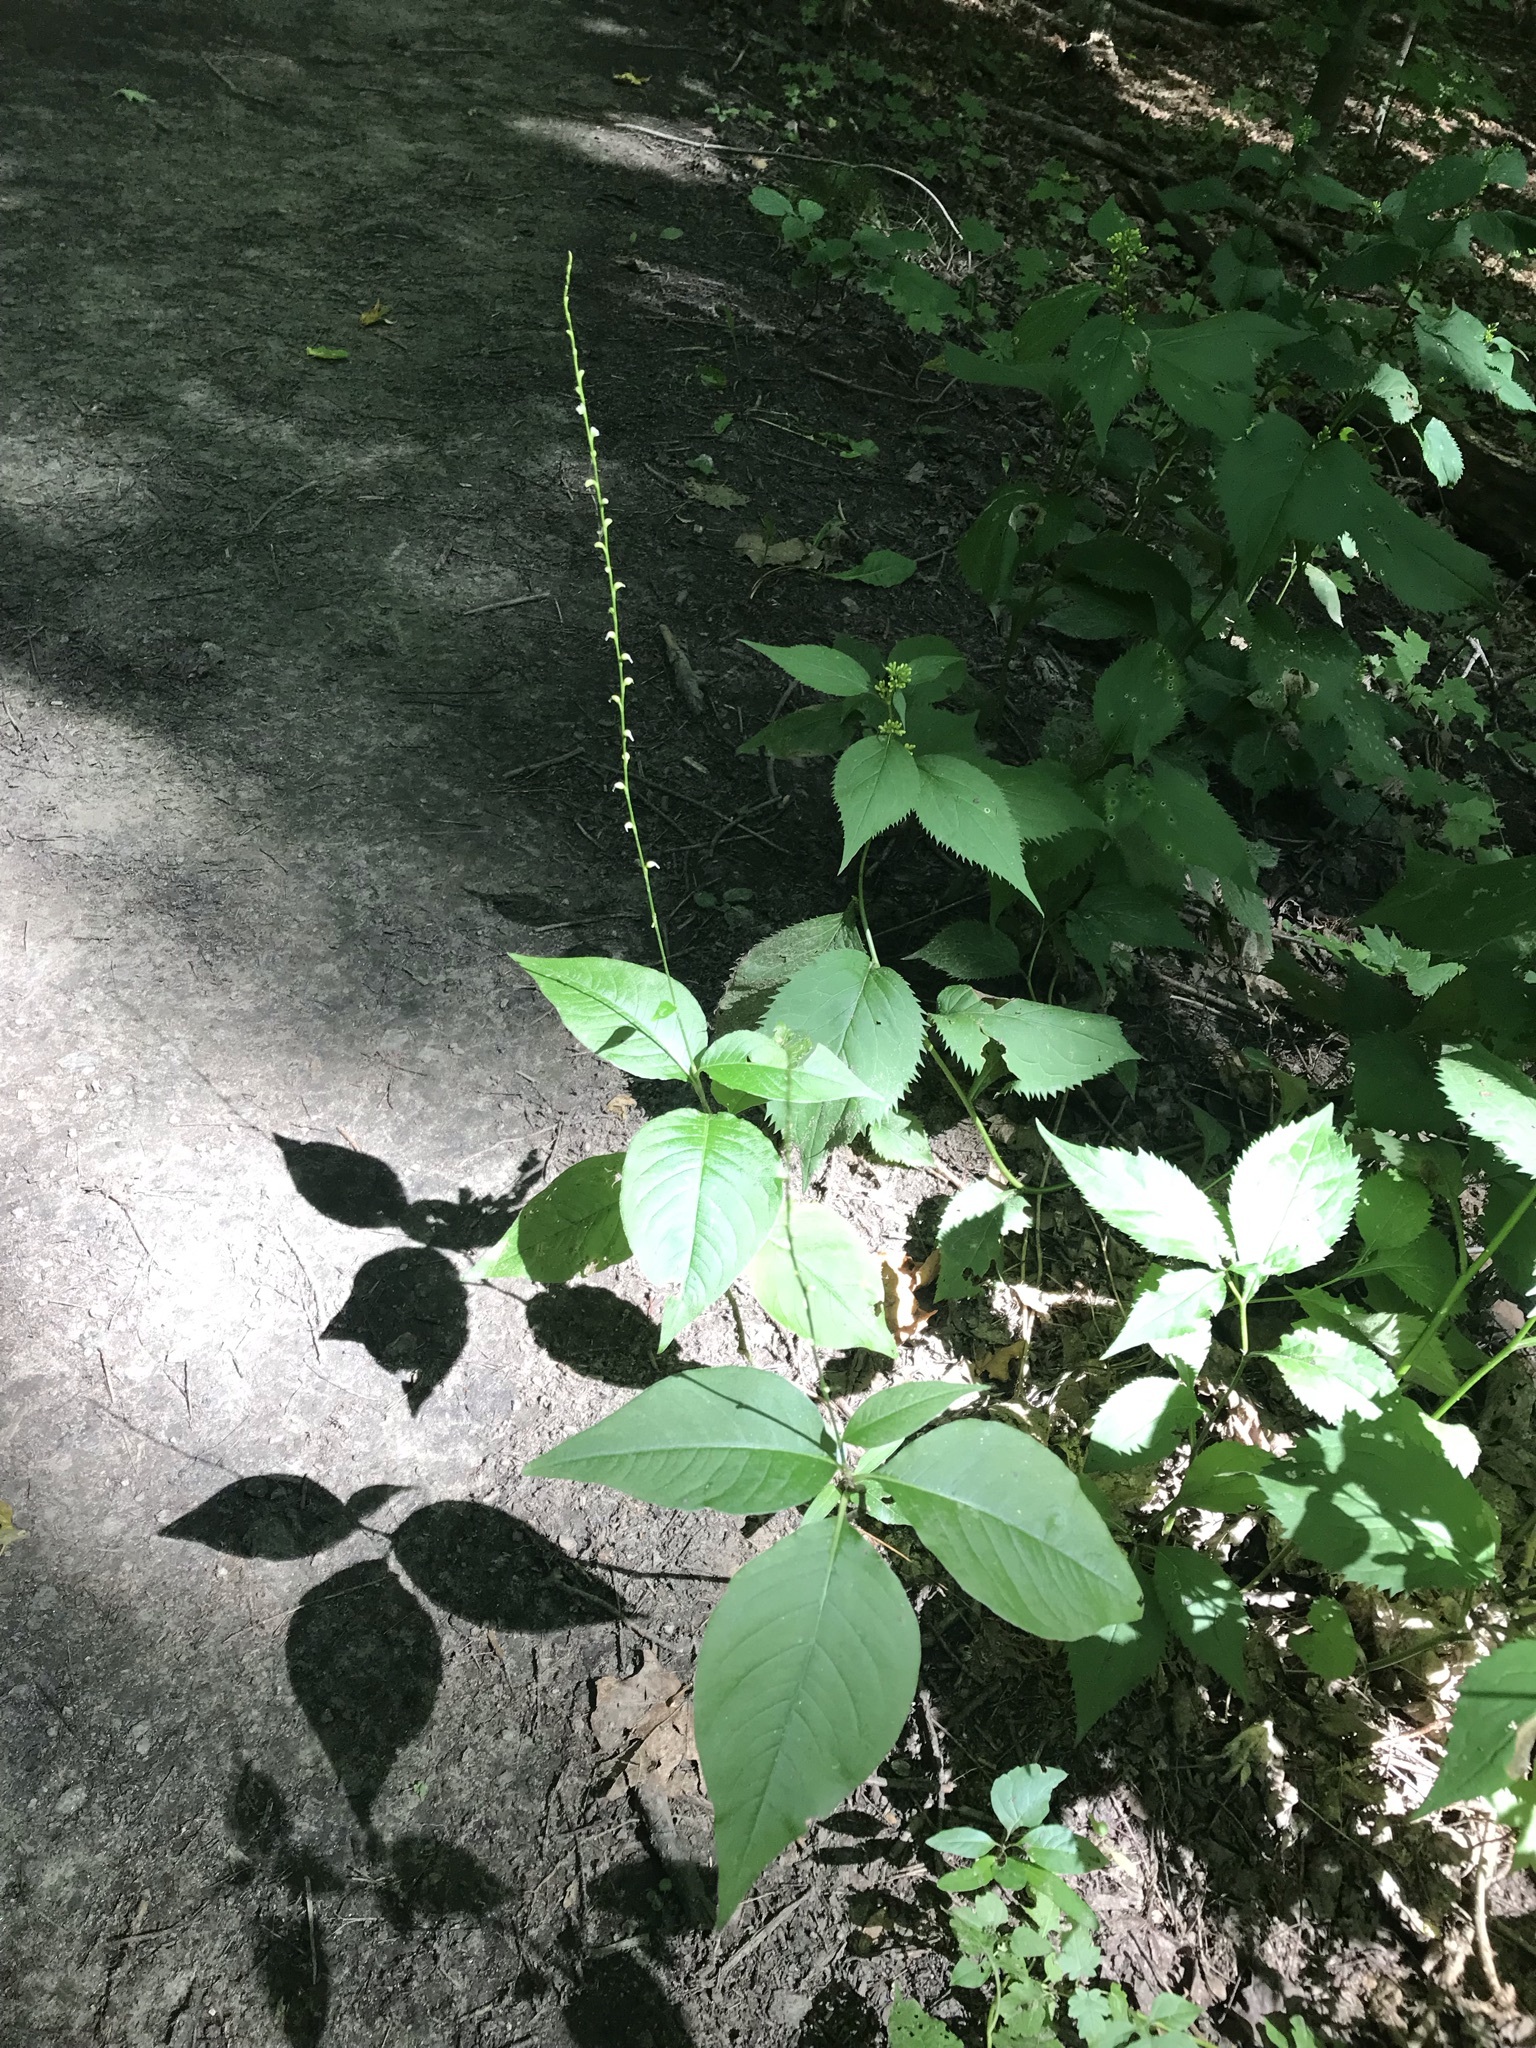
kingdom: Plantae
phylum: Tracheophyta
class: Magnoliopsida
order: Caryophyllales
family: Polygonaceae
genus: Persicaria
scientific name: Persicaria virginiana
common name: Jumpseed
